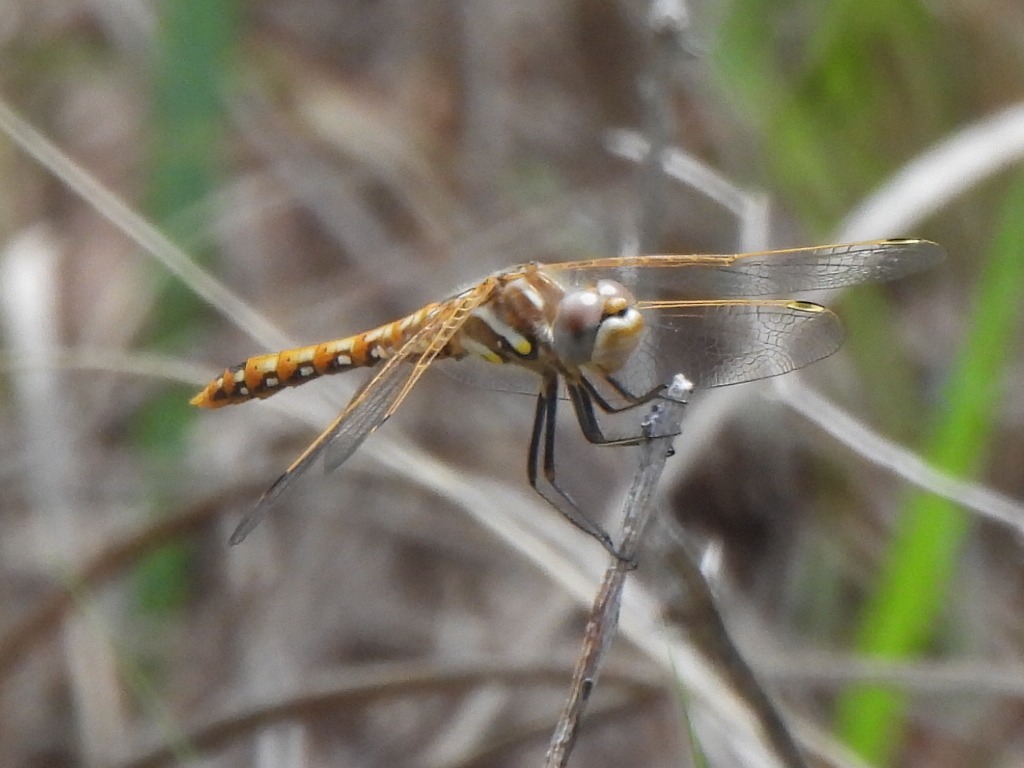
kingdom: Animalia
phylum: Arthropoda
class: Insecta
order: Odonata
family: Libellulidae
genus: Sympetrum
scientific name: Sympetrum corruptum
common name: Variegated meadowhawk
